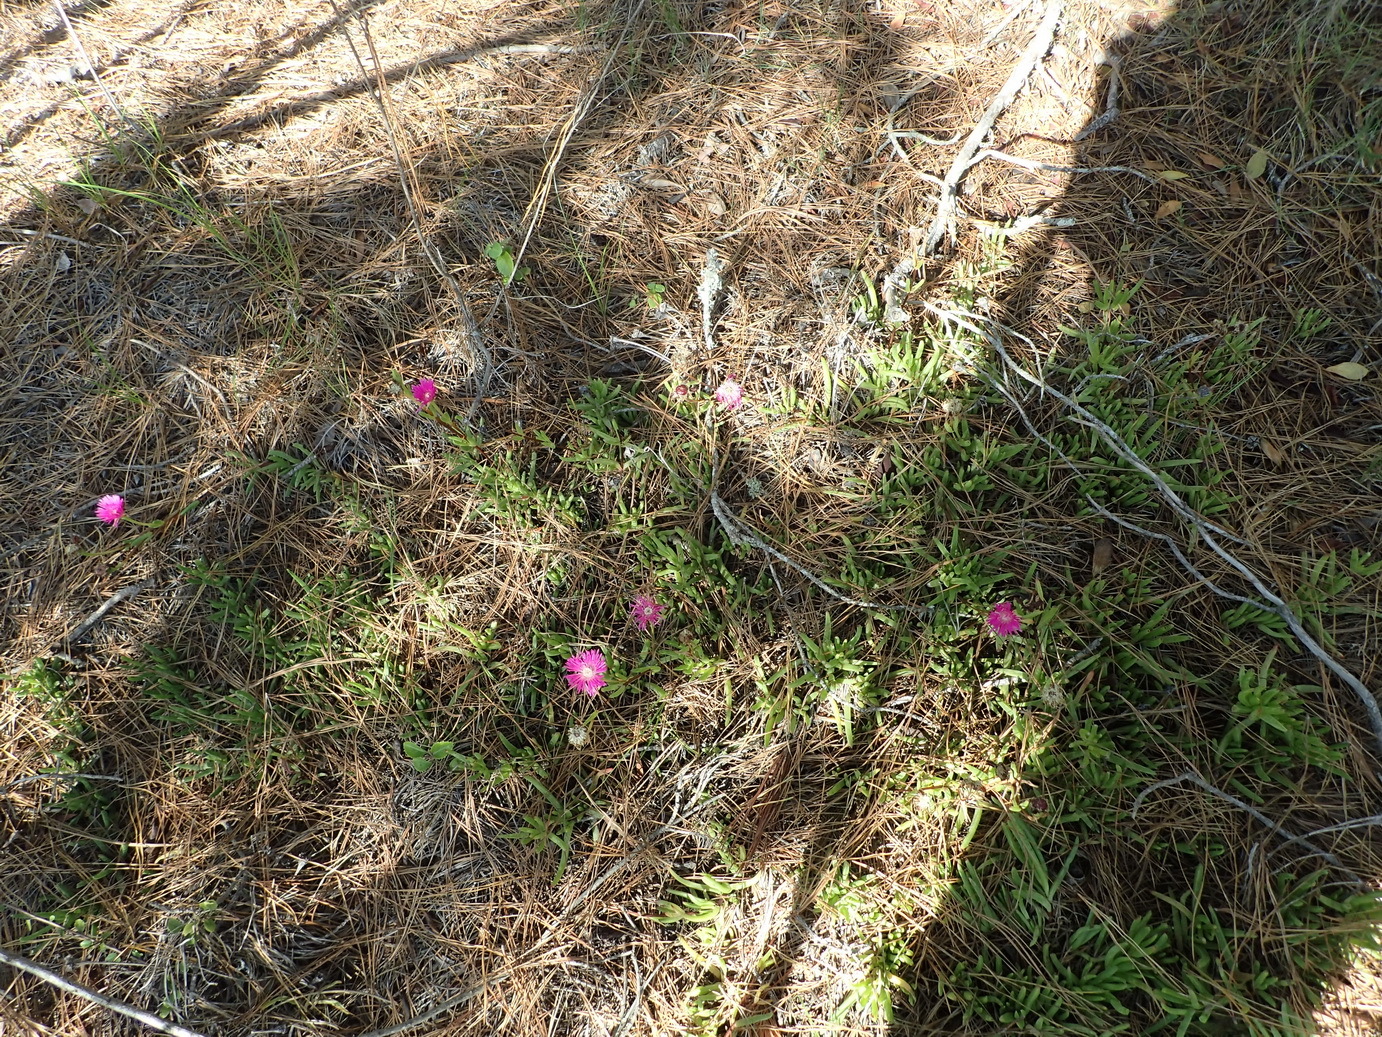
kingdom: Plantae
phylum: Tracheophyta
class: Magnoliopsida
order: Caryophyllales
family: Aizoaceae
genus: Ruschia
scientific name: Ruschia duthiae
